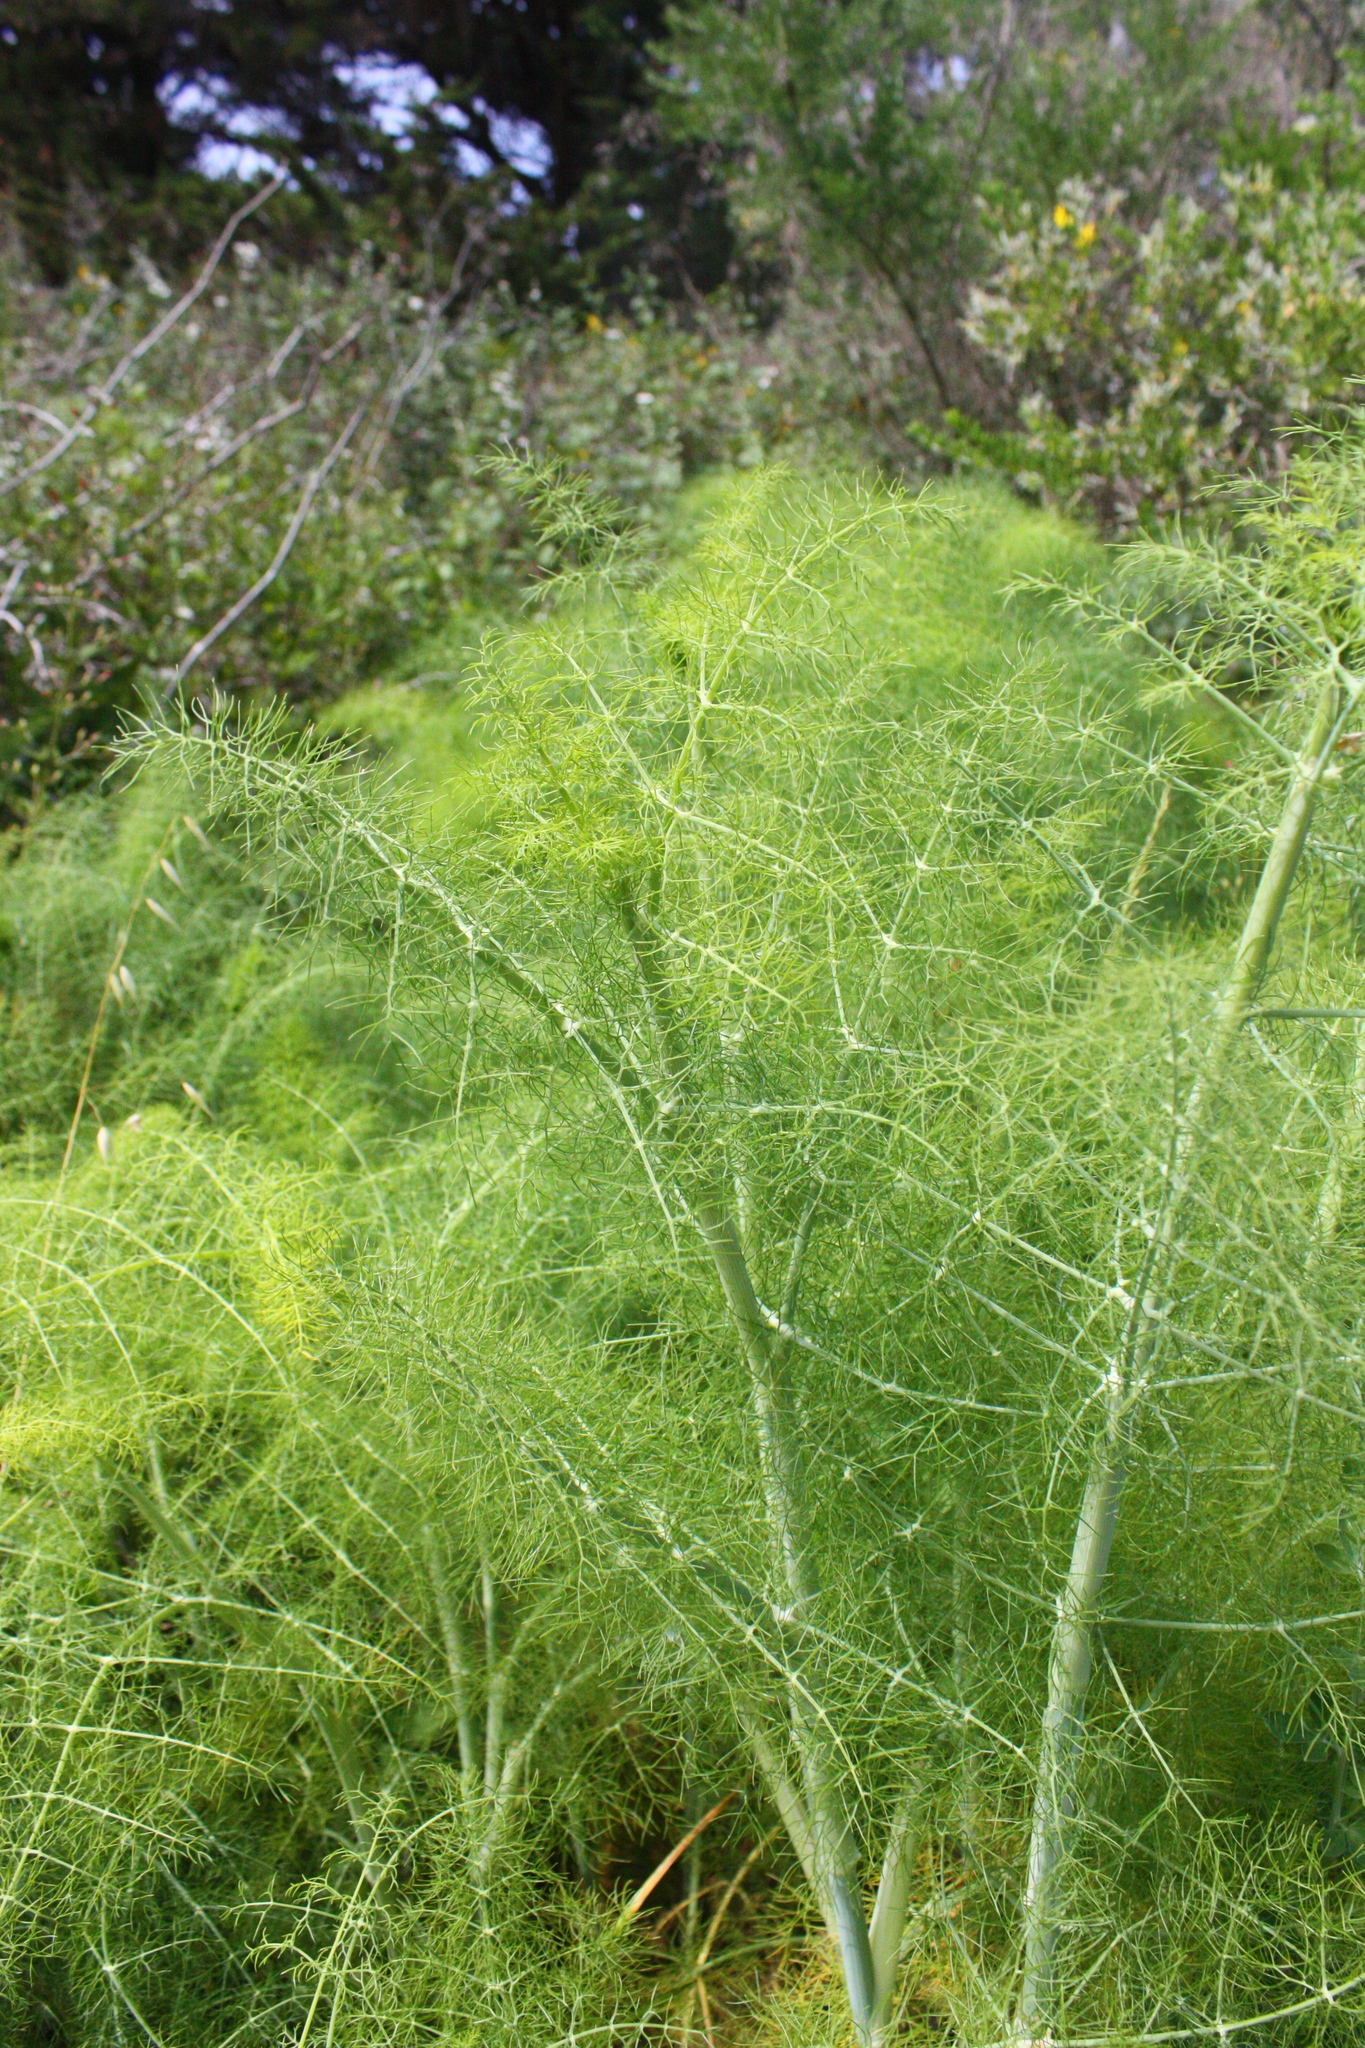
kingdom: Plantae
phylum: Tracheophyta
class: Magnoliopsida
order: Apiales
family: Apiaceae
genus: Foeniculum
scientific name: Foeniculum vulgare
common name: Fennel
